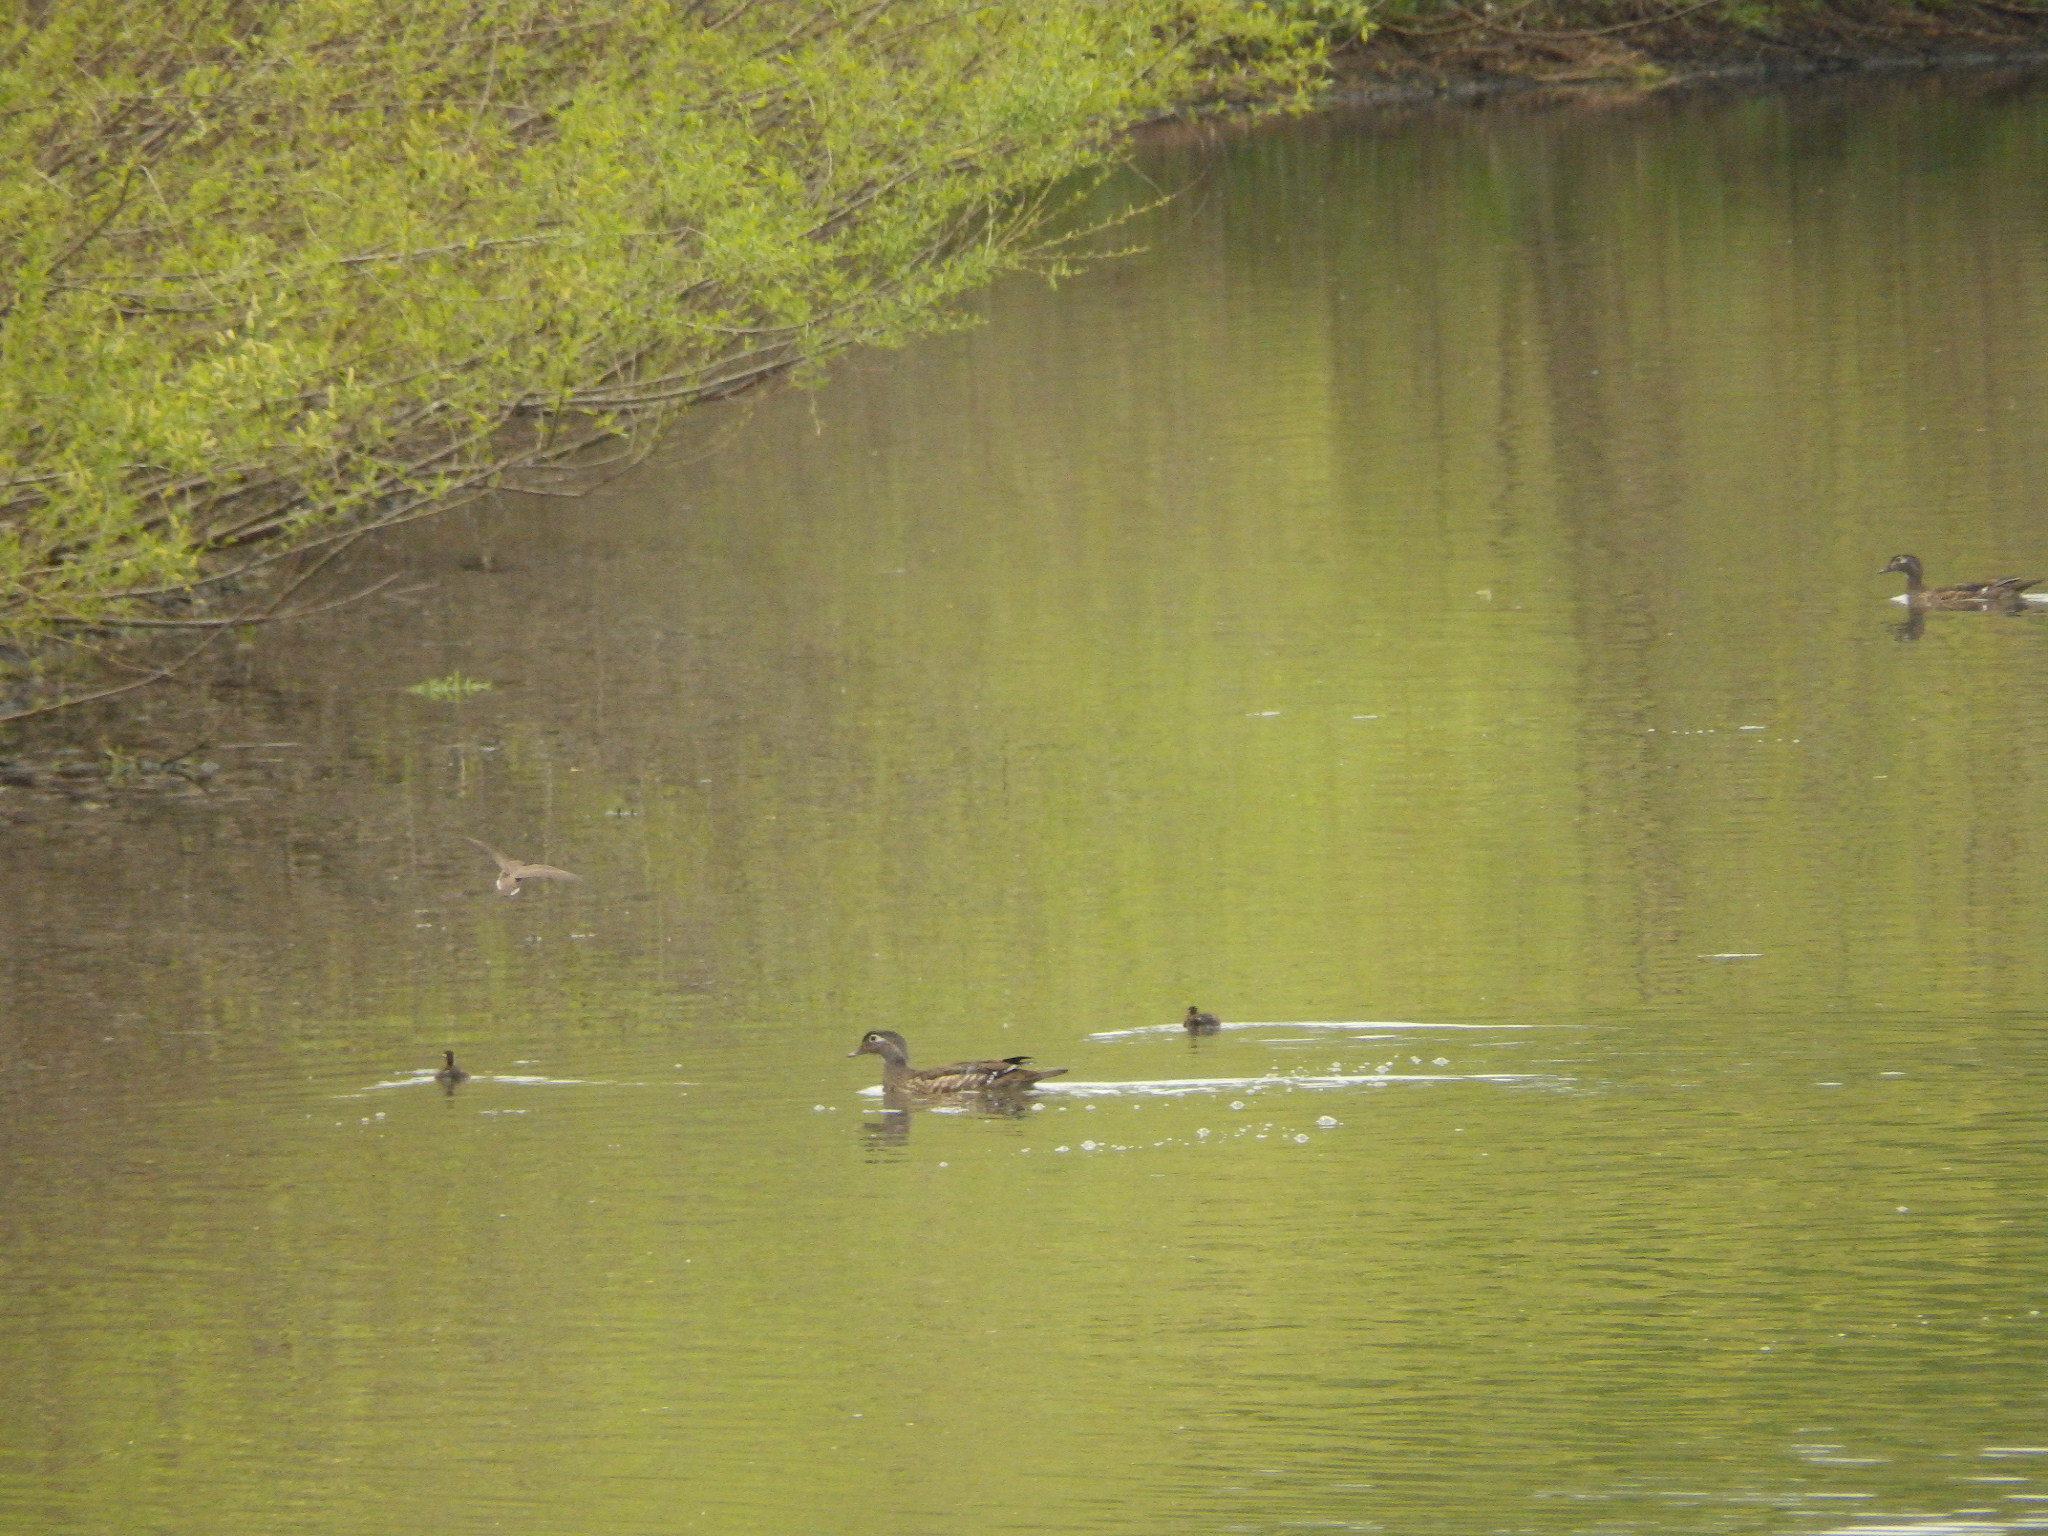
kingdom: Animalia
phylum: Chordata
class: Aves
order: Anseriformes
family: Anatidae
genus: Aix
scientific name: Aix sponsa
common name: Wood duck
